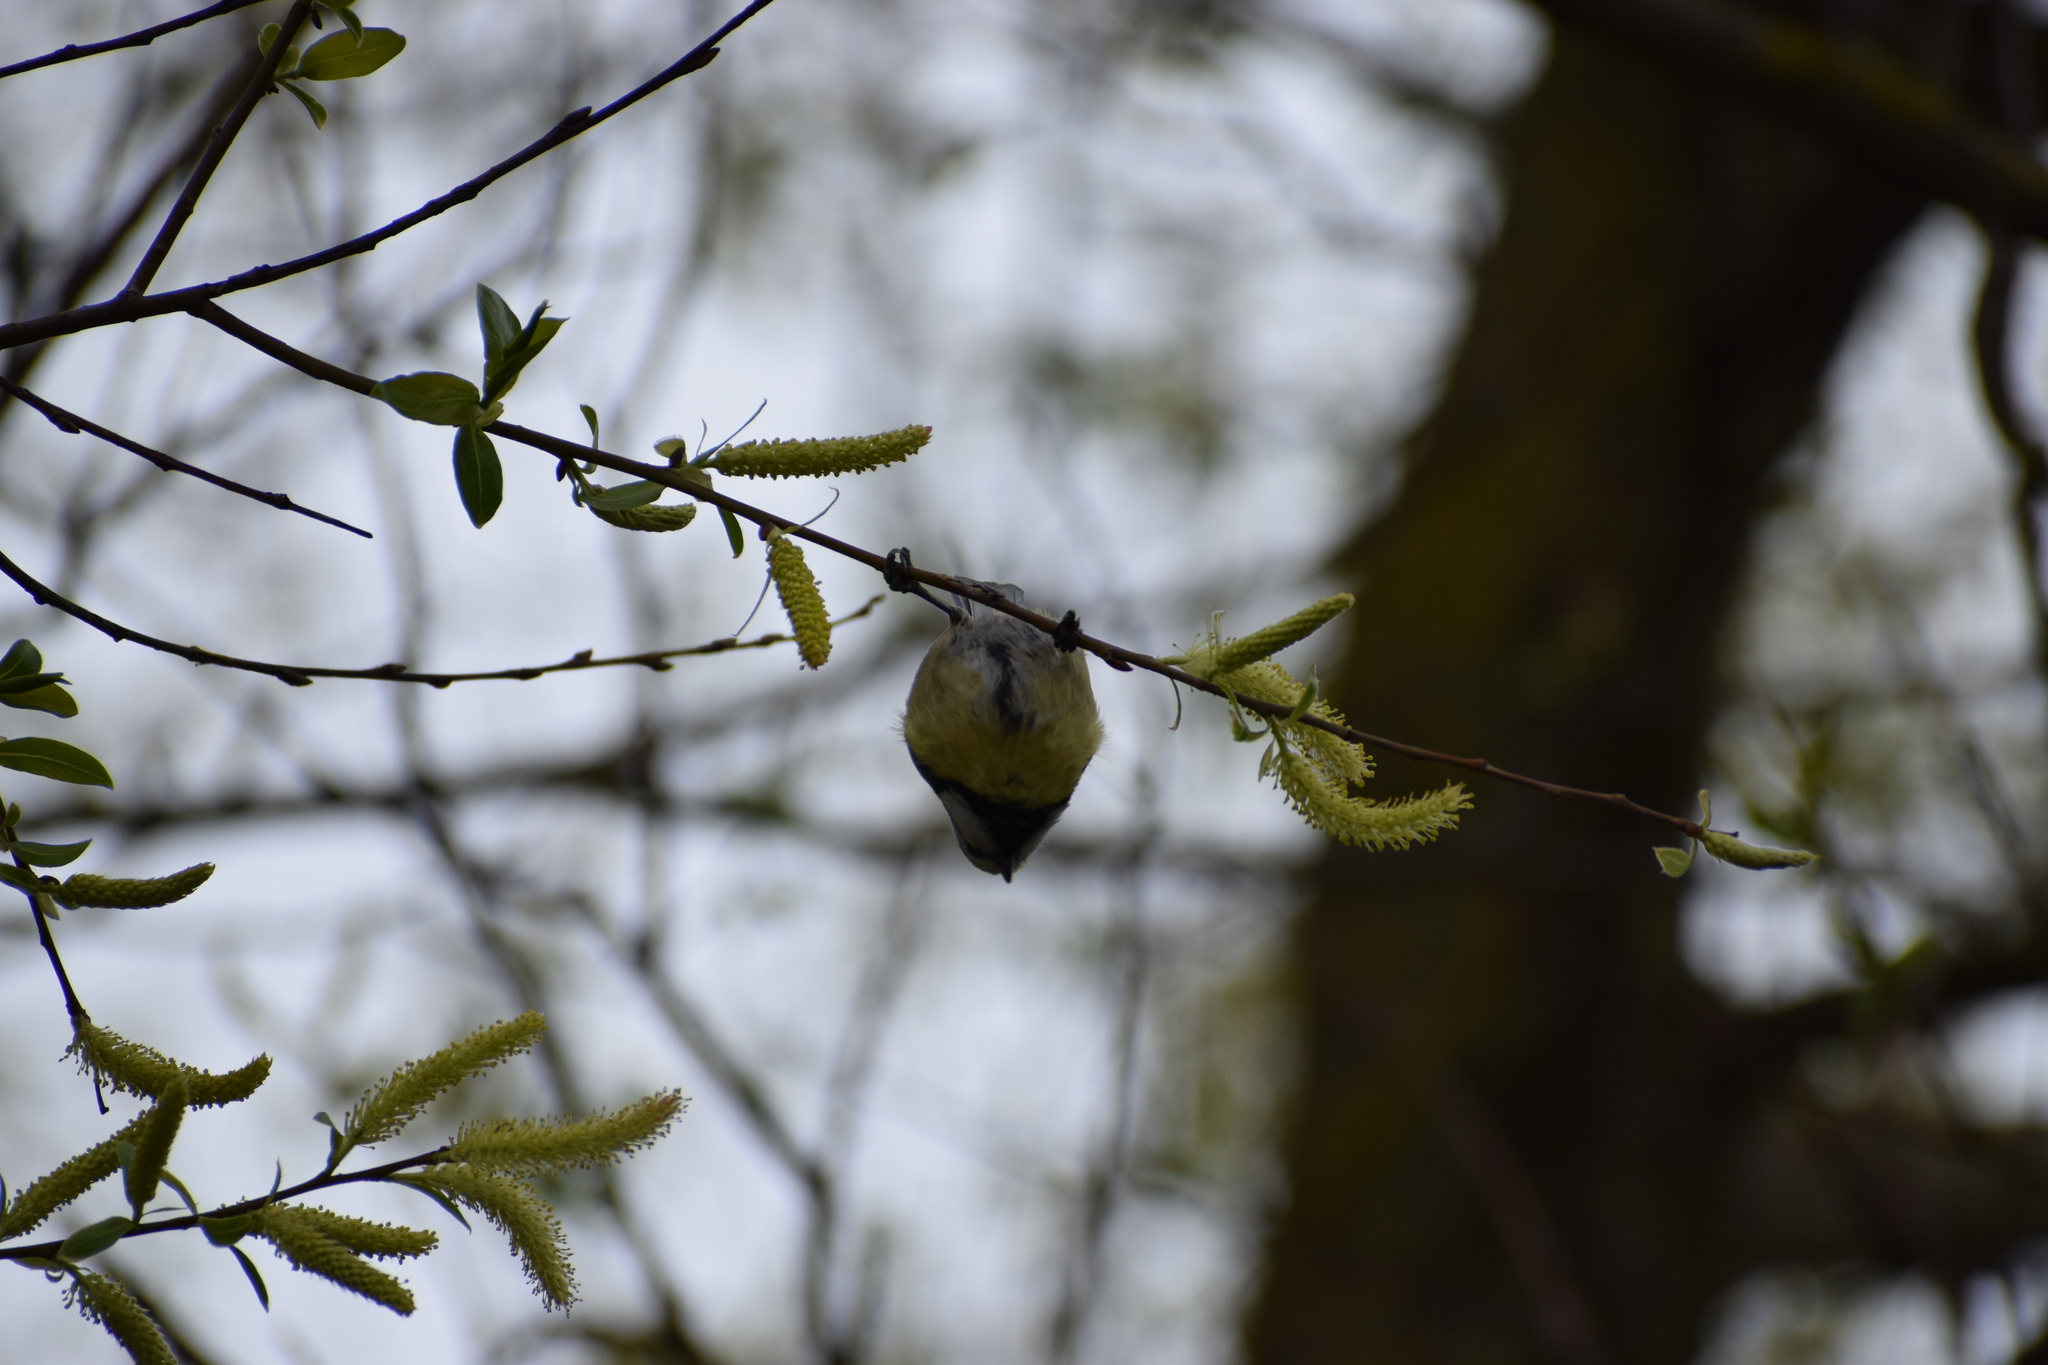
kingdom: Animalia
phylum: Chordata
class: Aves
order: Passeriformes
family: Paridae
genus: Cyanistes
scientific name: Cyanistes caeruleus
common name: Eurasian blue tit
